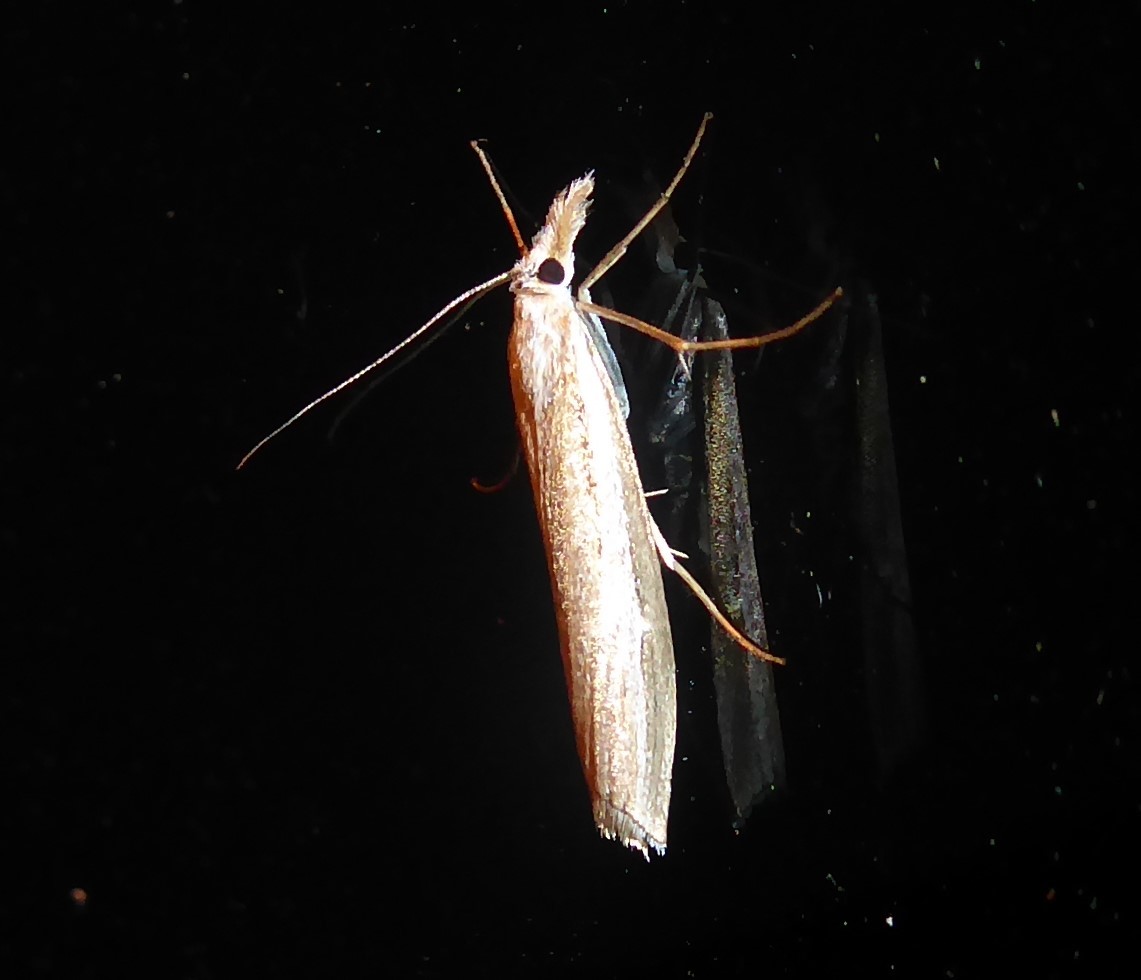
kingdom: Animalia
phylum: Arthropoda
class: Insecta
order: Lepidoptera
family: Crambidae
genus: Orocrambus
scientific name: Orocrambus vittellus
